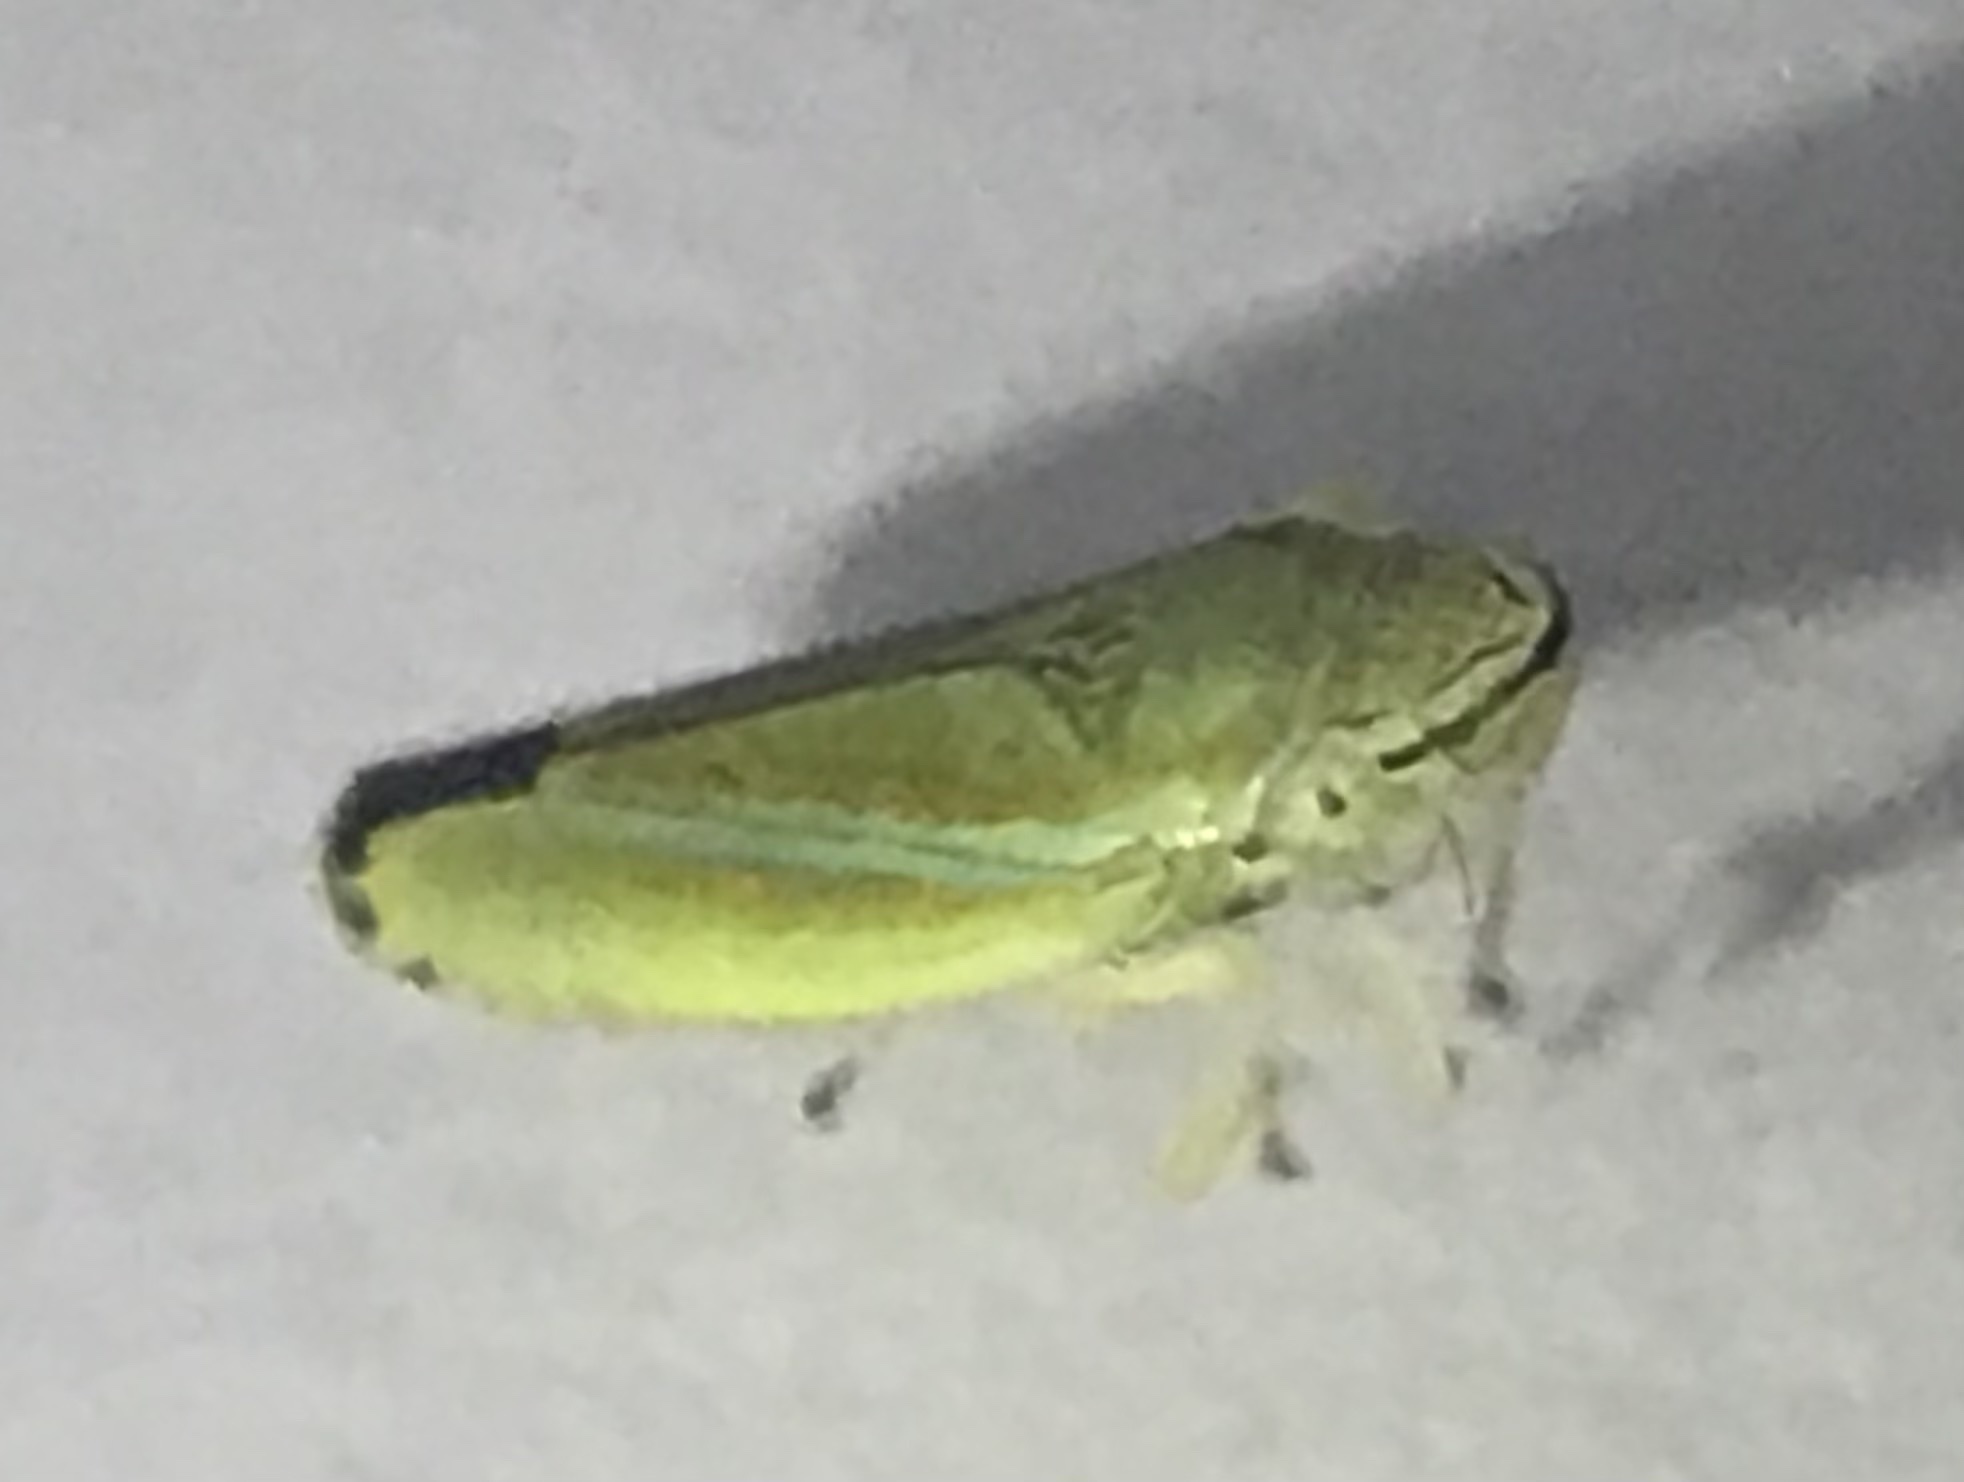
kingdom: Animalia
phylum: Arthropoda
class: Insecta
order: Hemiptera
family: Cicadellidae
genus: Graphocephala
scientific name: Graphocephala versuta
